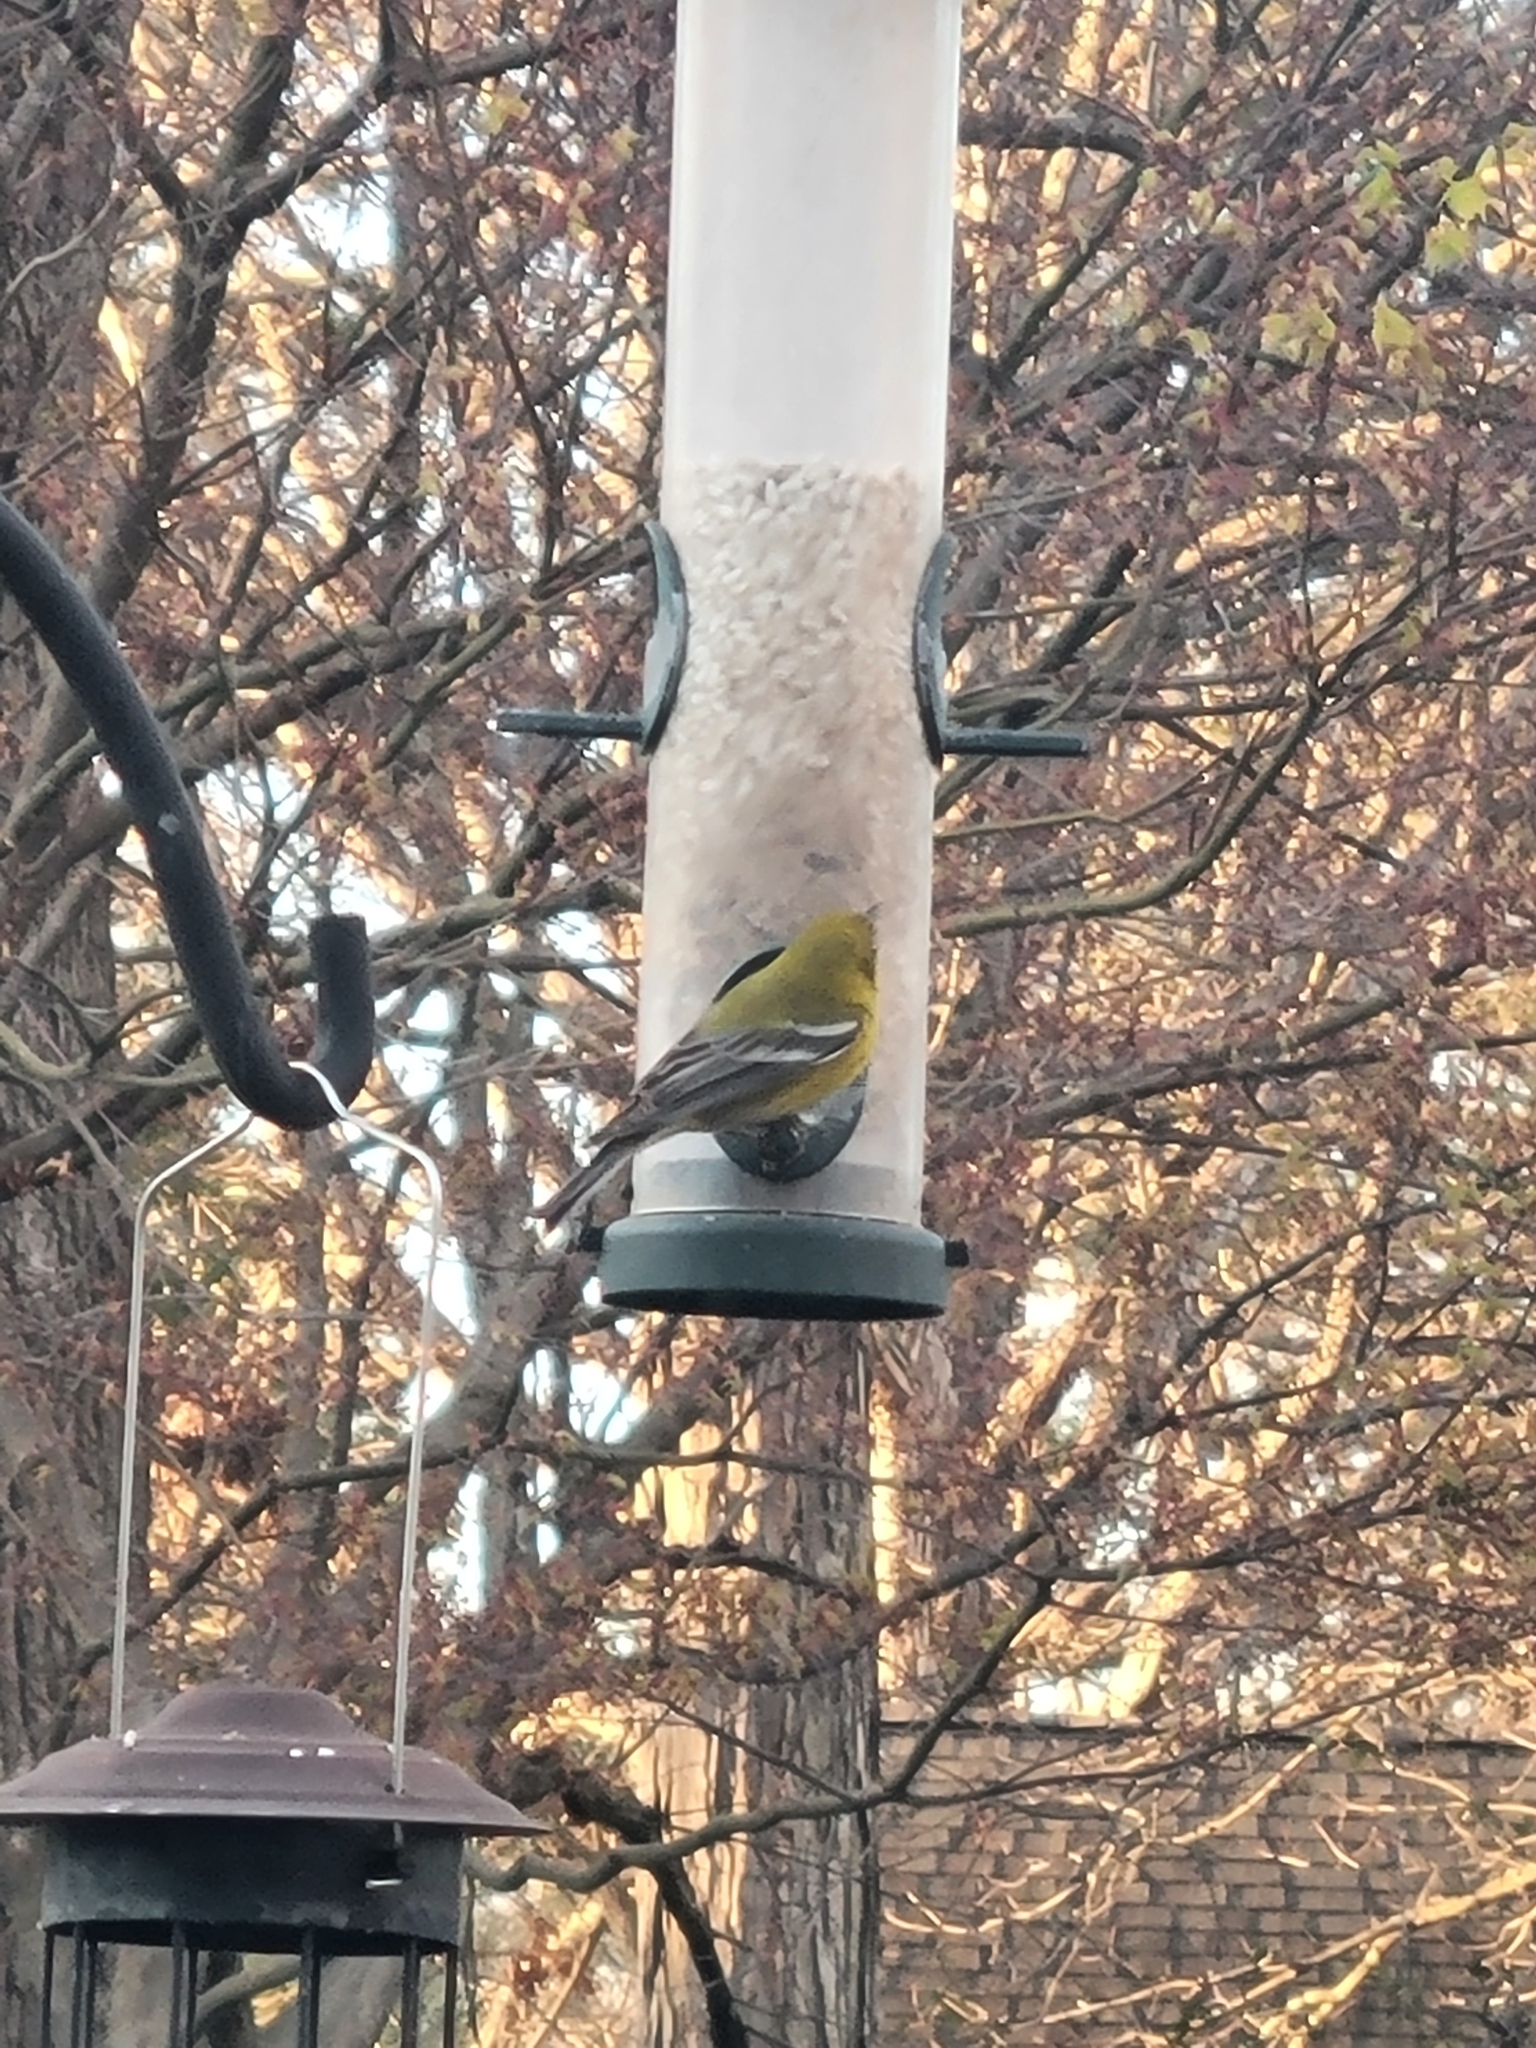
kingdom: Animalia
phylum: Chordata
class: Aves
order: Passeriformes
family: Parulidae
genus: Setophaga
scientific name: Setophaga pinus
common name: Pine warbler
